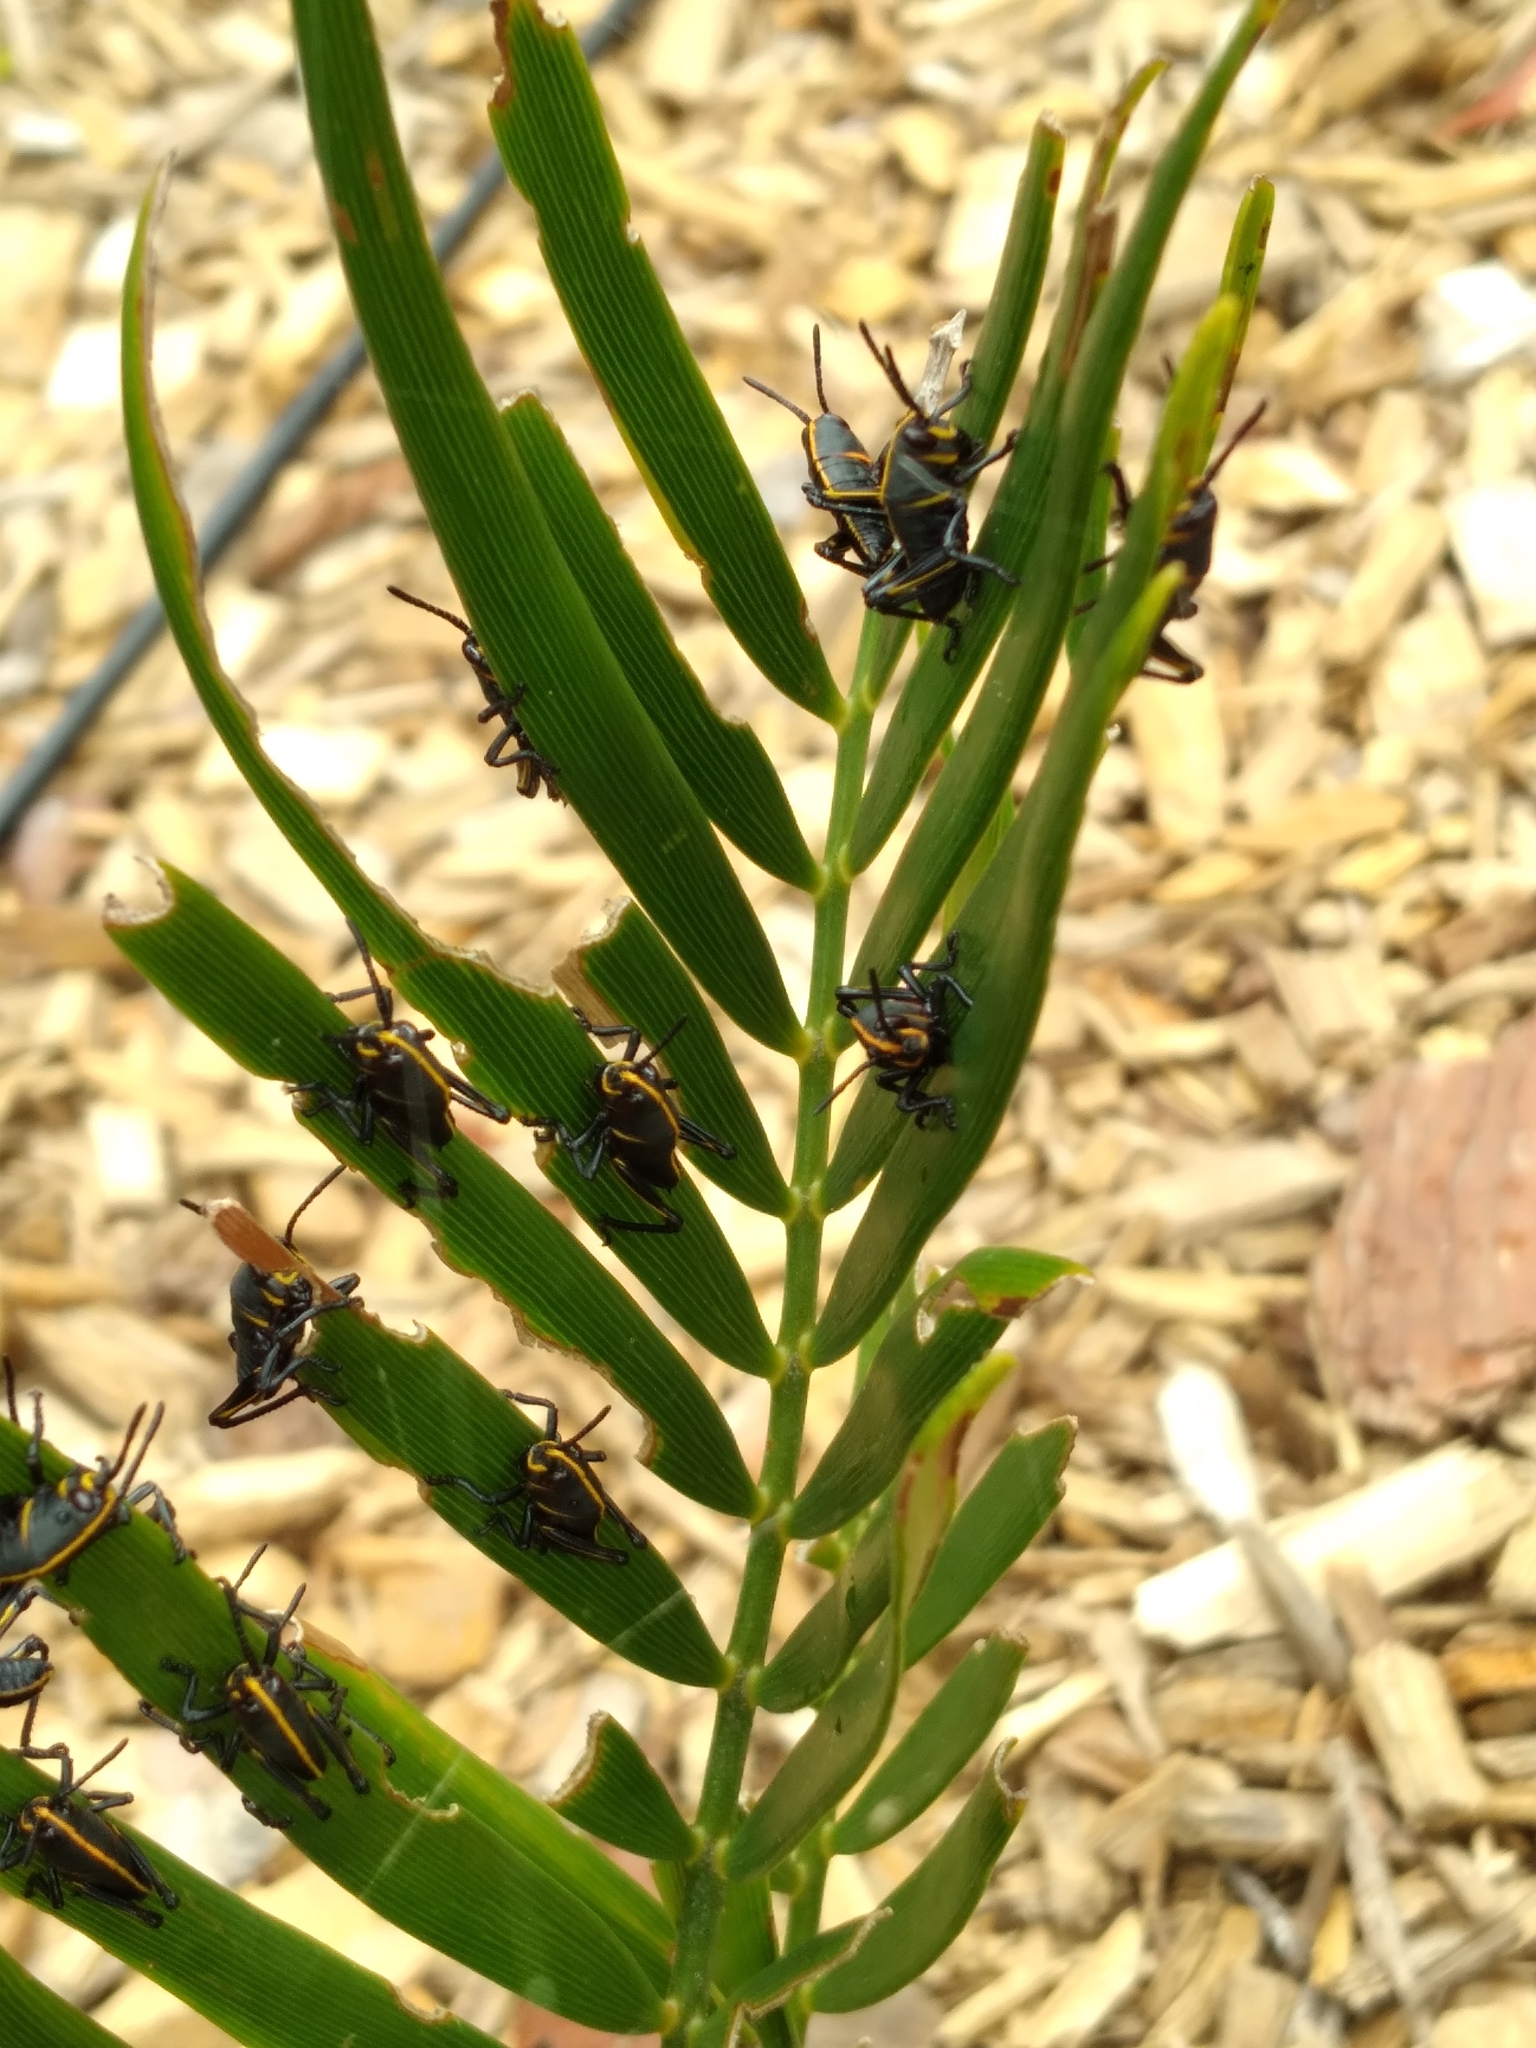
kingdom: Animalia
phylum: Arthropoda
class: Insecta
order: Orthoptera
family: Romaleidae
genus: Romalea
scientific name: Romalea microptera
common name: Eastern lubber grasshopper
